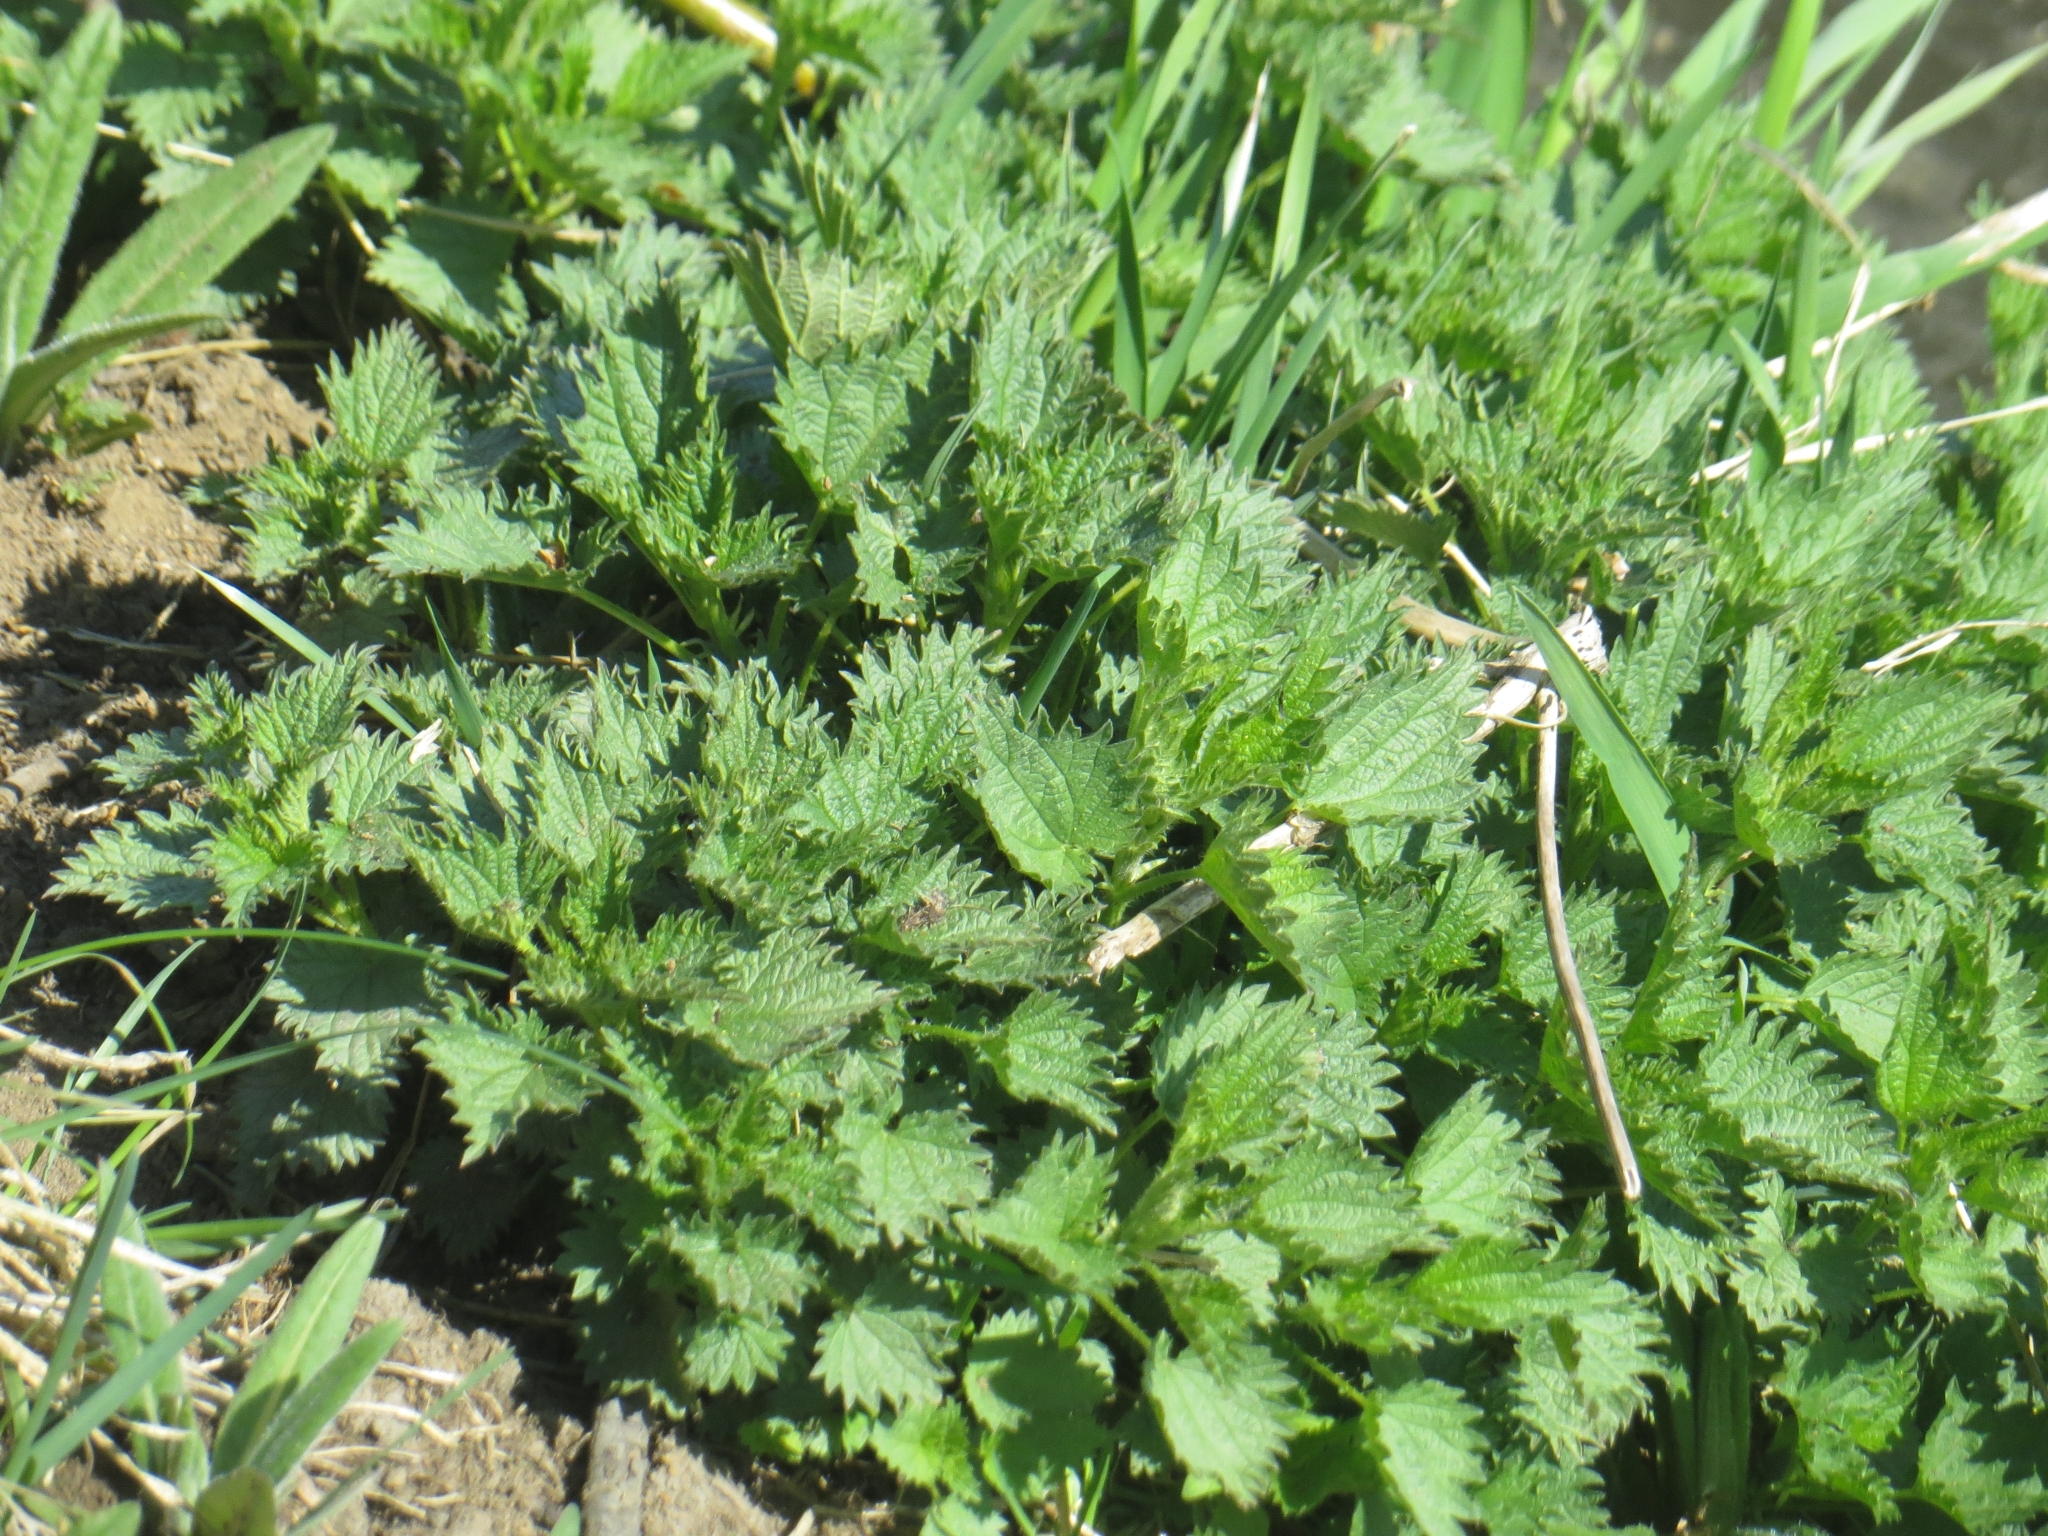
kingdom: Plantae
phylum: Tracheophyta
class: Magnoliopsida
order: Rosales
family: Urticaceae
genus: Urtica
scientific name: Urtica dioica
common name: Common nettle
